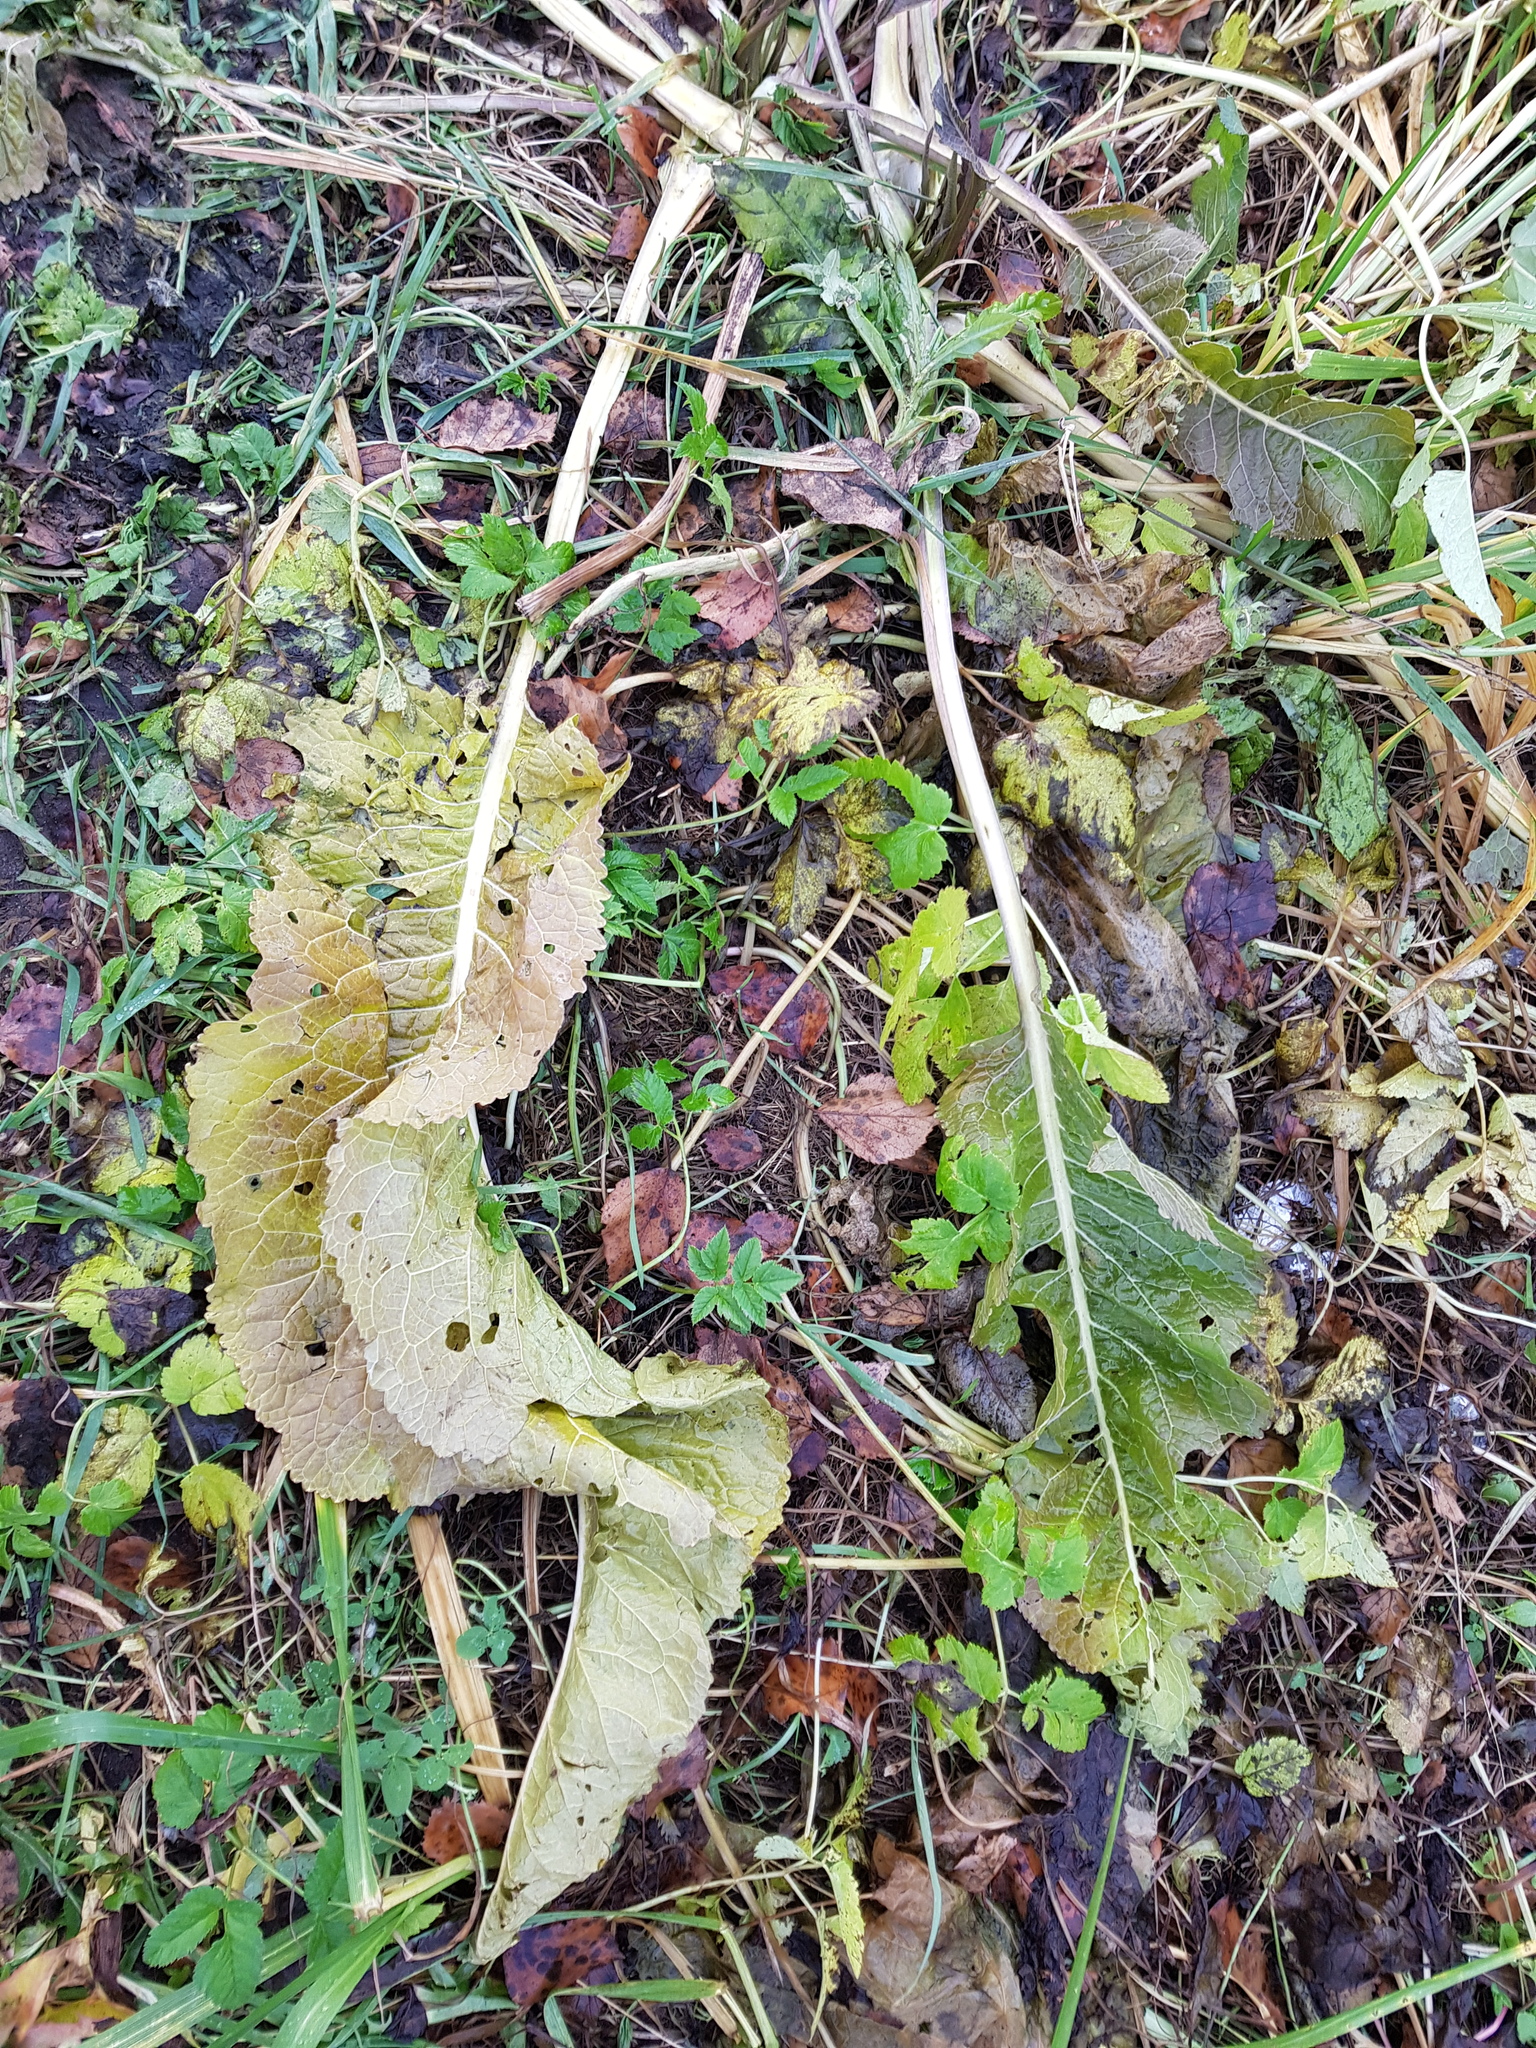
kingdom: Plantae
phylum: Tracheophyta
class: Magnoliopsida
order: Brassicales
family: Brassicaceae
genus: Armoracia
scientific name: Armoracia rusticana
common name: Horseradish
